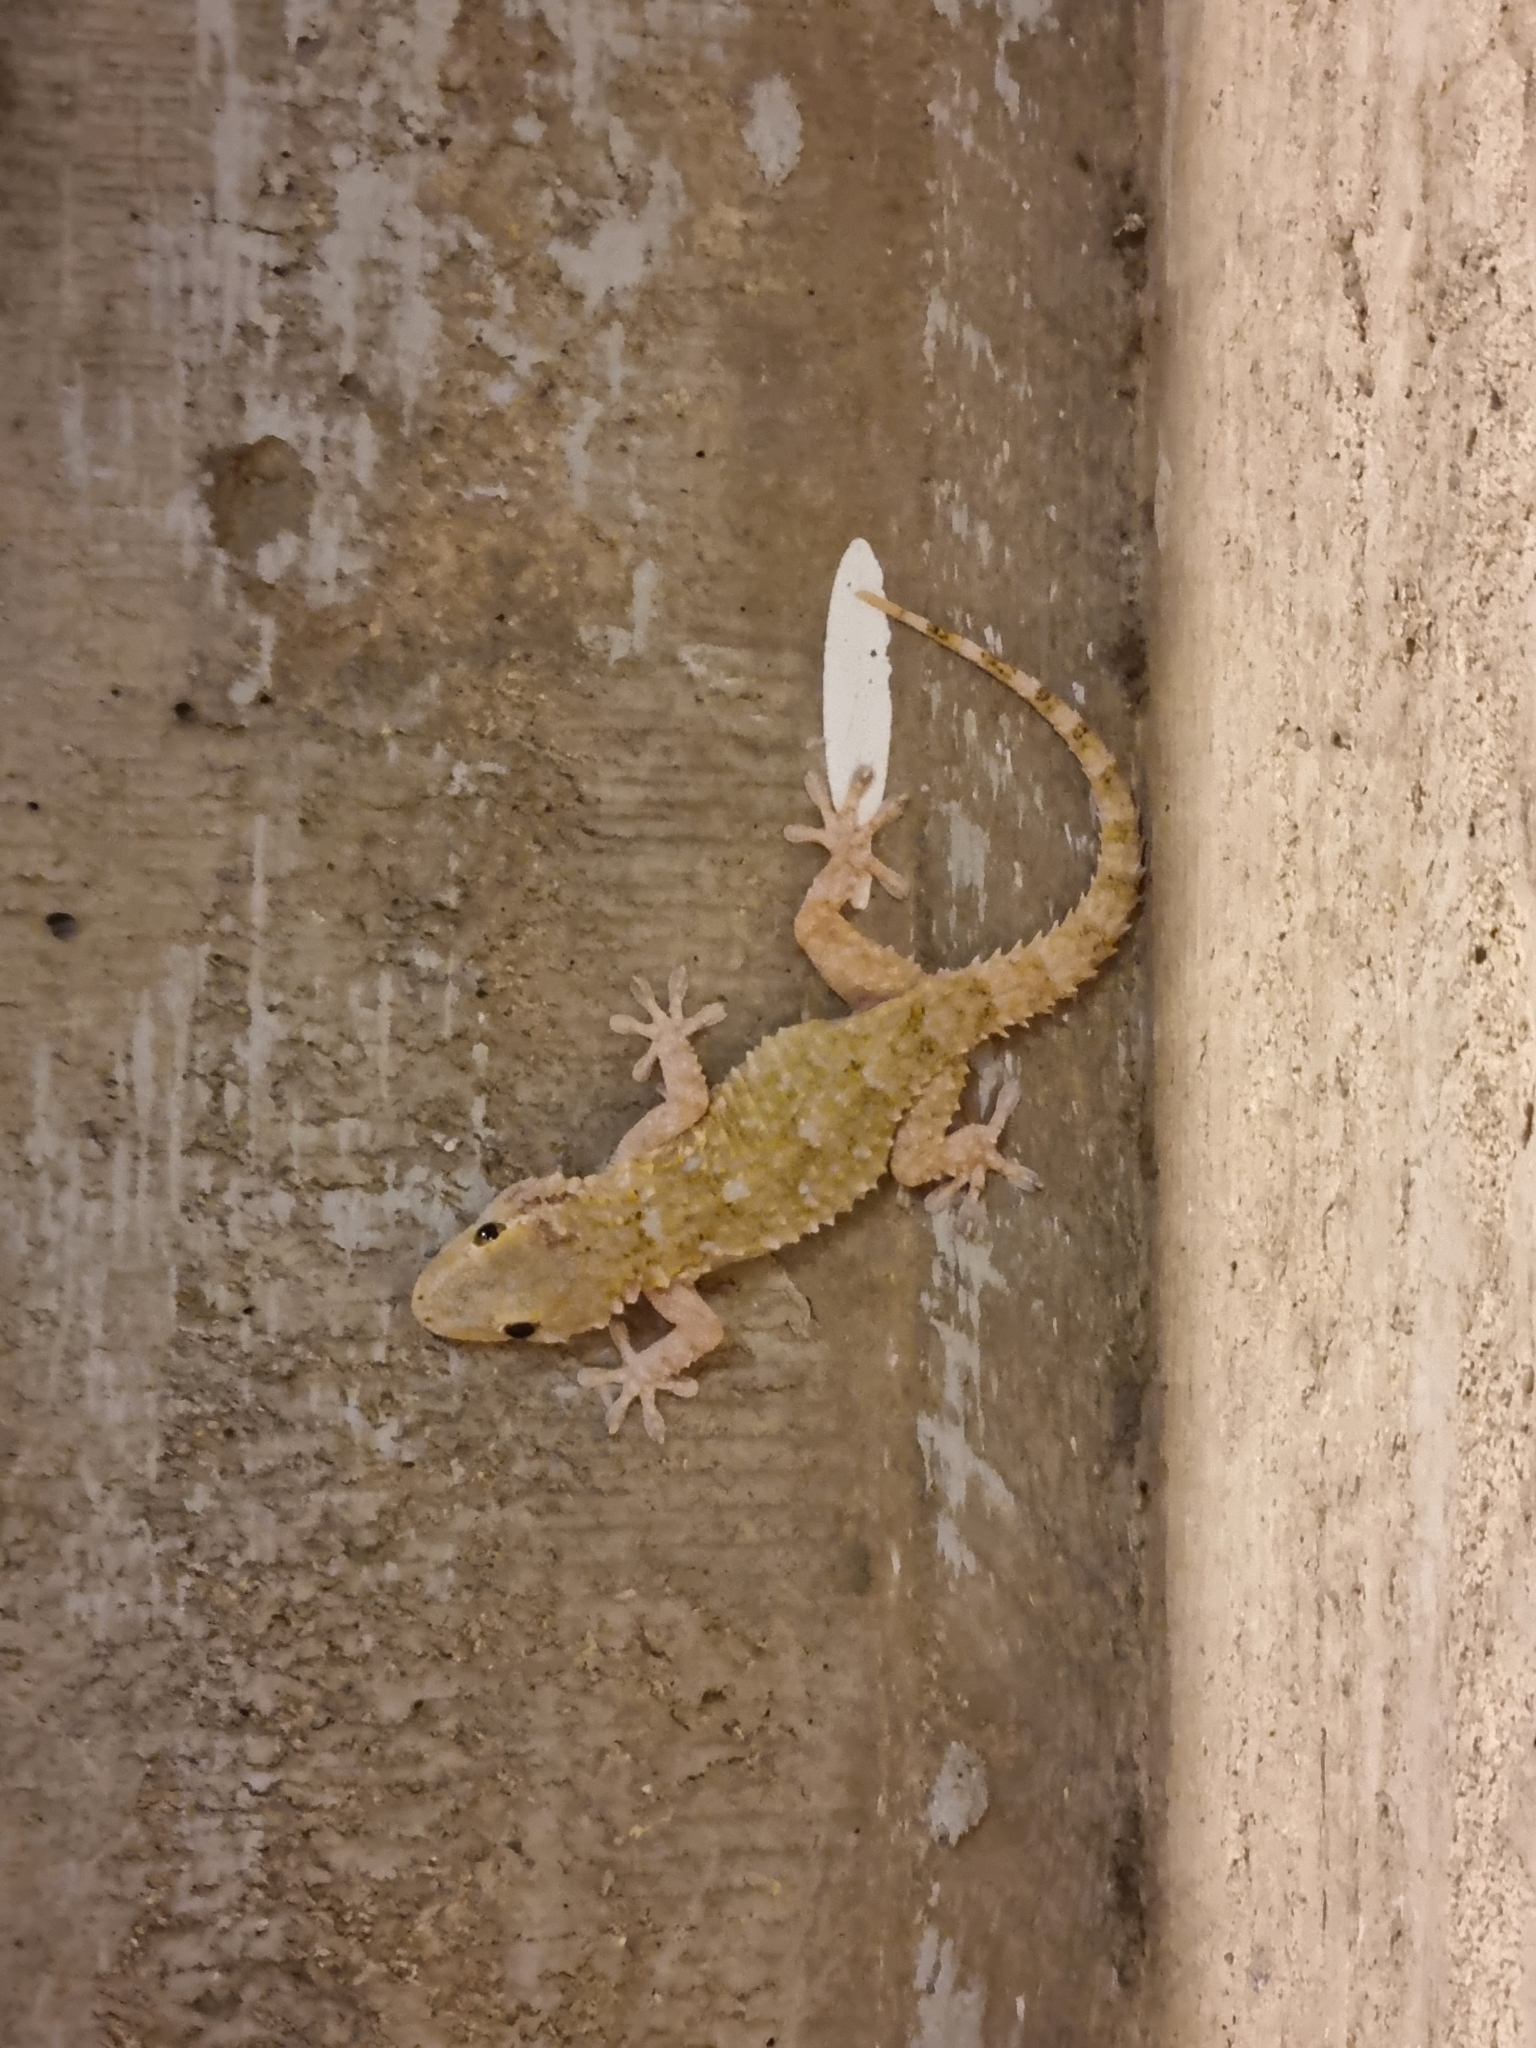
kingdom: Animalia
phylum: Chordata
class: Squamata
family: Phyllodactylidae
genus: Tarentola
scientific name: Tarentola mauritanica
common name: Moorish gecko
